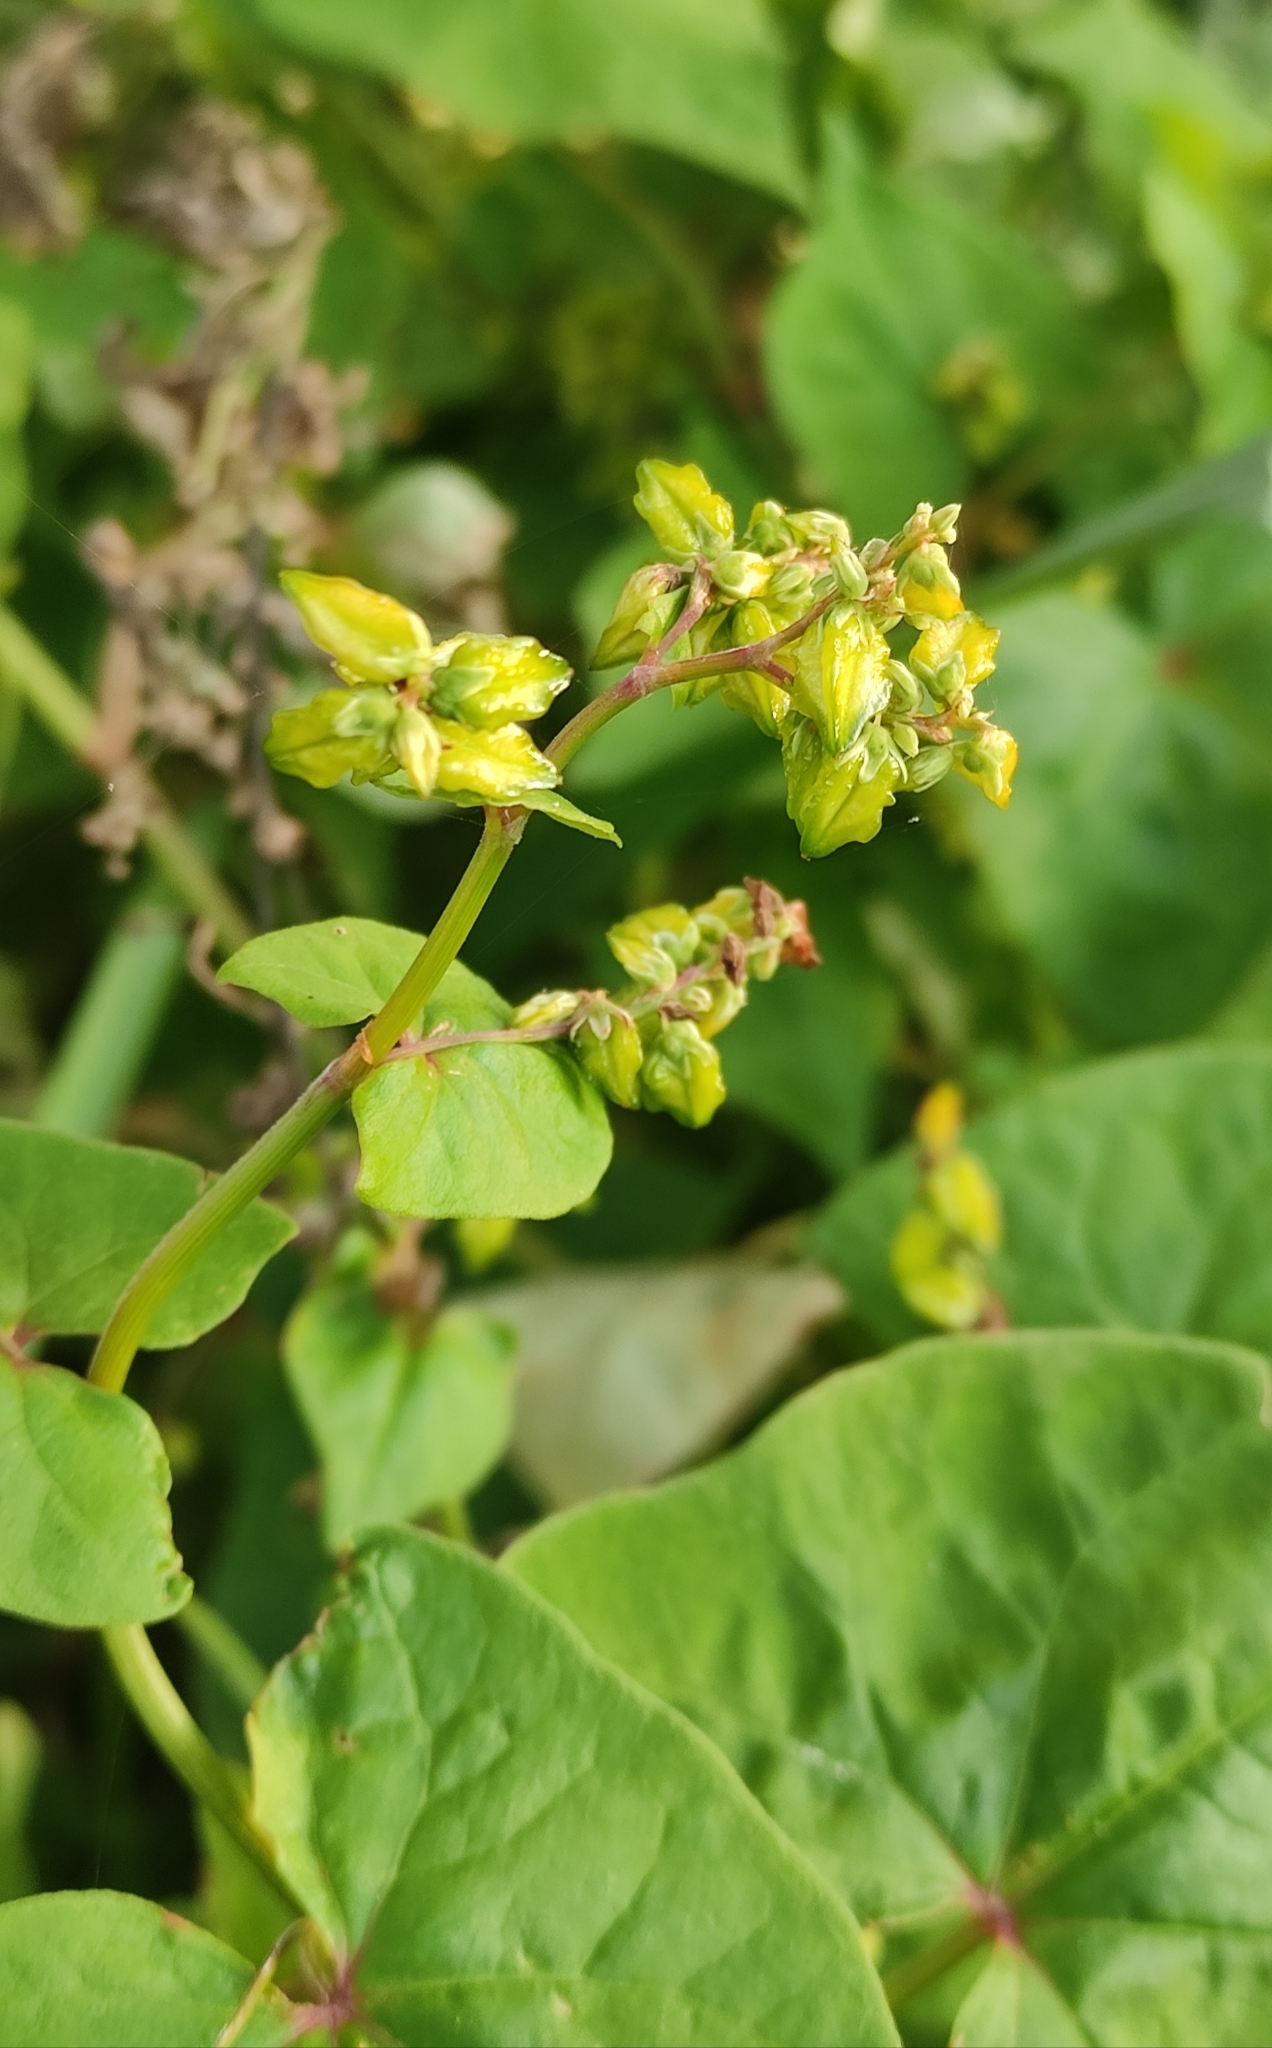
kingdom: Plantae
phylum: Tracheophyta
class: Magnoliopsida
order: Caryophyllales
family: Polygonaceae
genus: Fagopyrum
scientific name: Fagopyrum tataricum
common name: Green buckwheat
